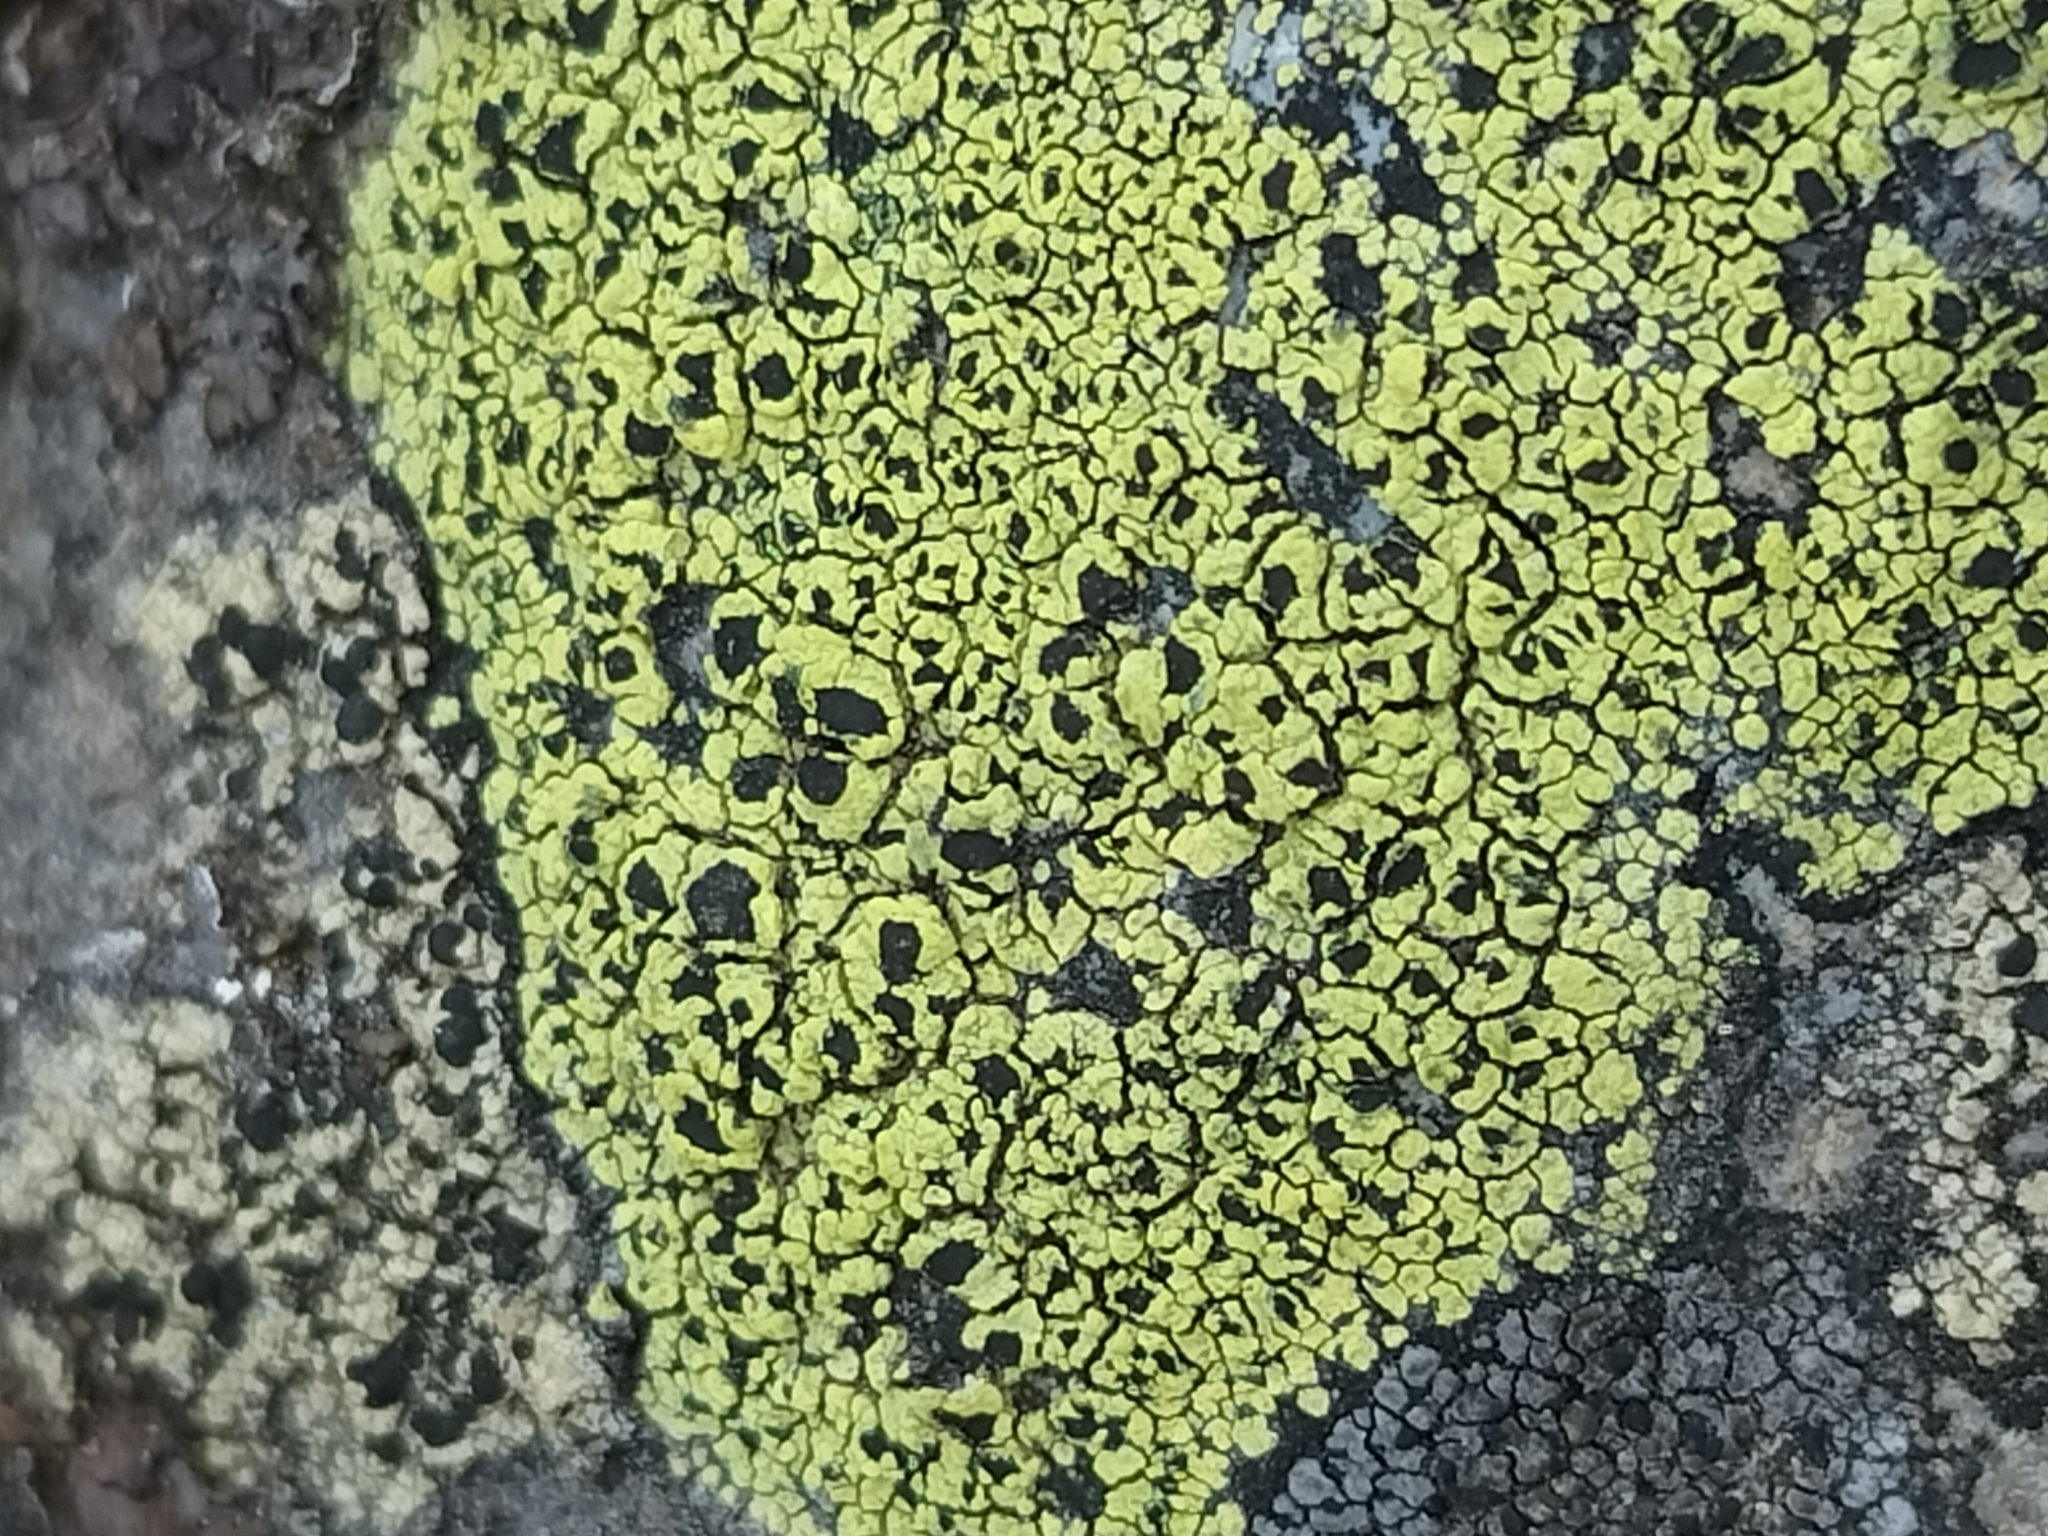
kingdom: Fungi
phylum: Ascomycota
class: Lecanoromycetes
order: Rhizocarpales
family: Rhizocarpaceae
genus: Rhizocarpon
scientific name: Rhizocarpon lecanorinum
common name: Crescent map lichen
